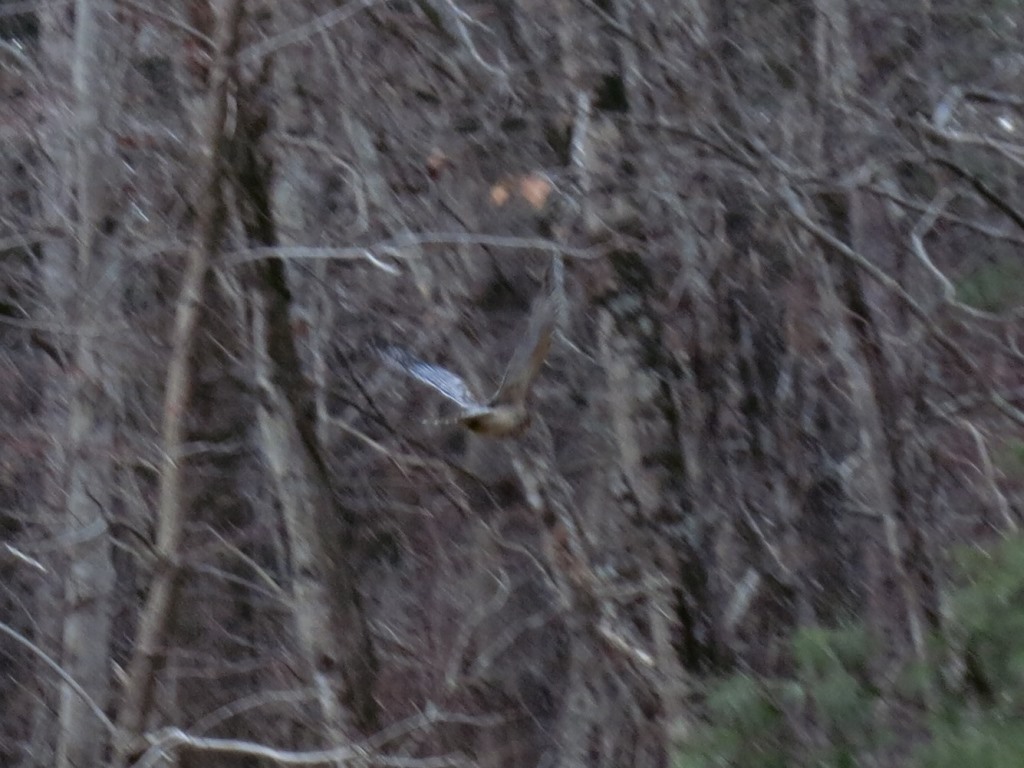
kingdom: Animalia
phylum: Chordata
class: Aves
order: Accipitriformes
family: Accipitridae
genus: Buteo
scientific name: Buteo lineatus
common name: Red-shouldered hawk
